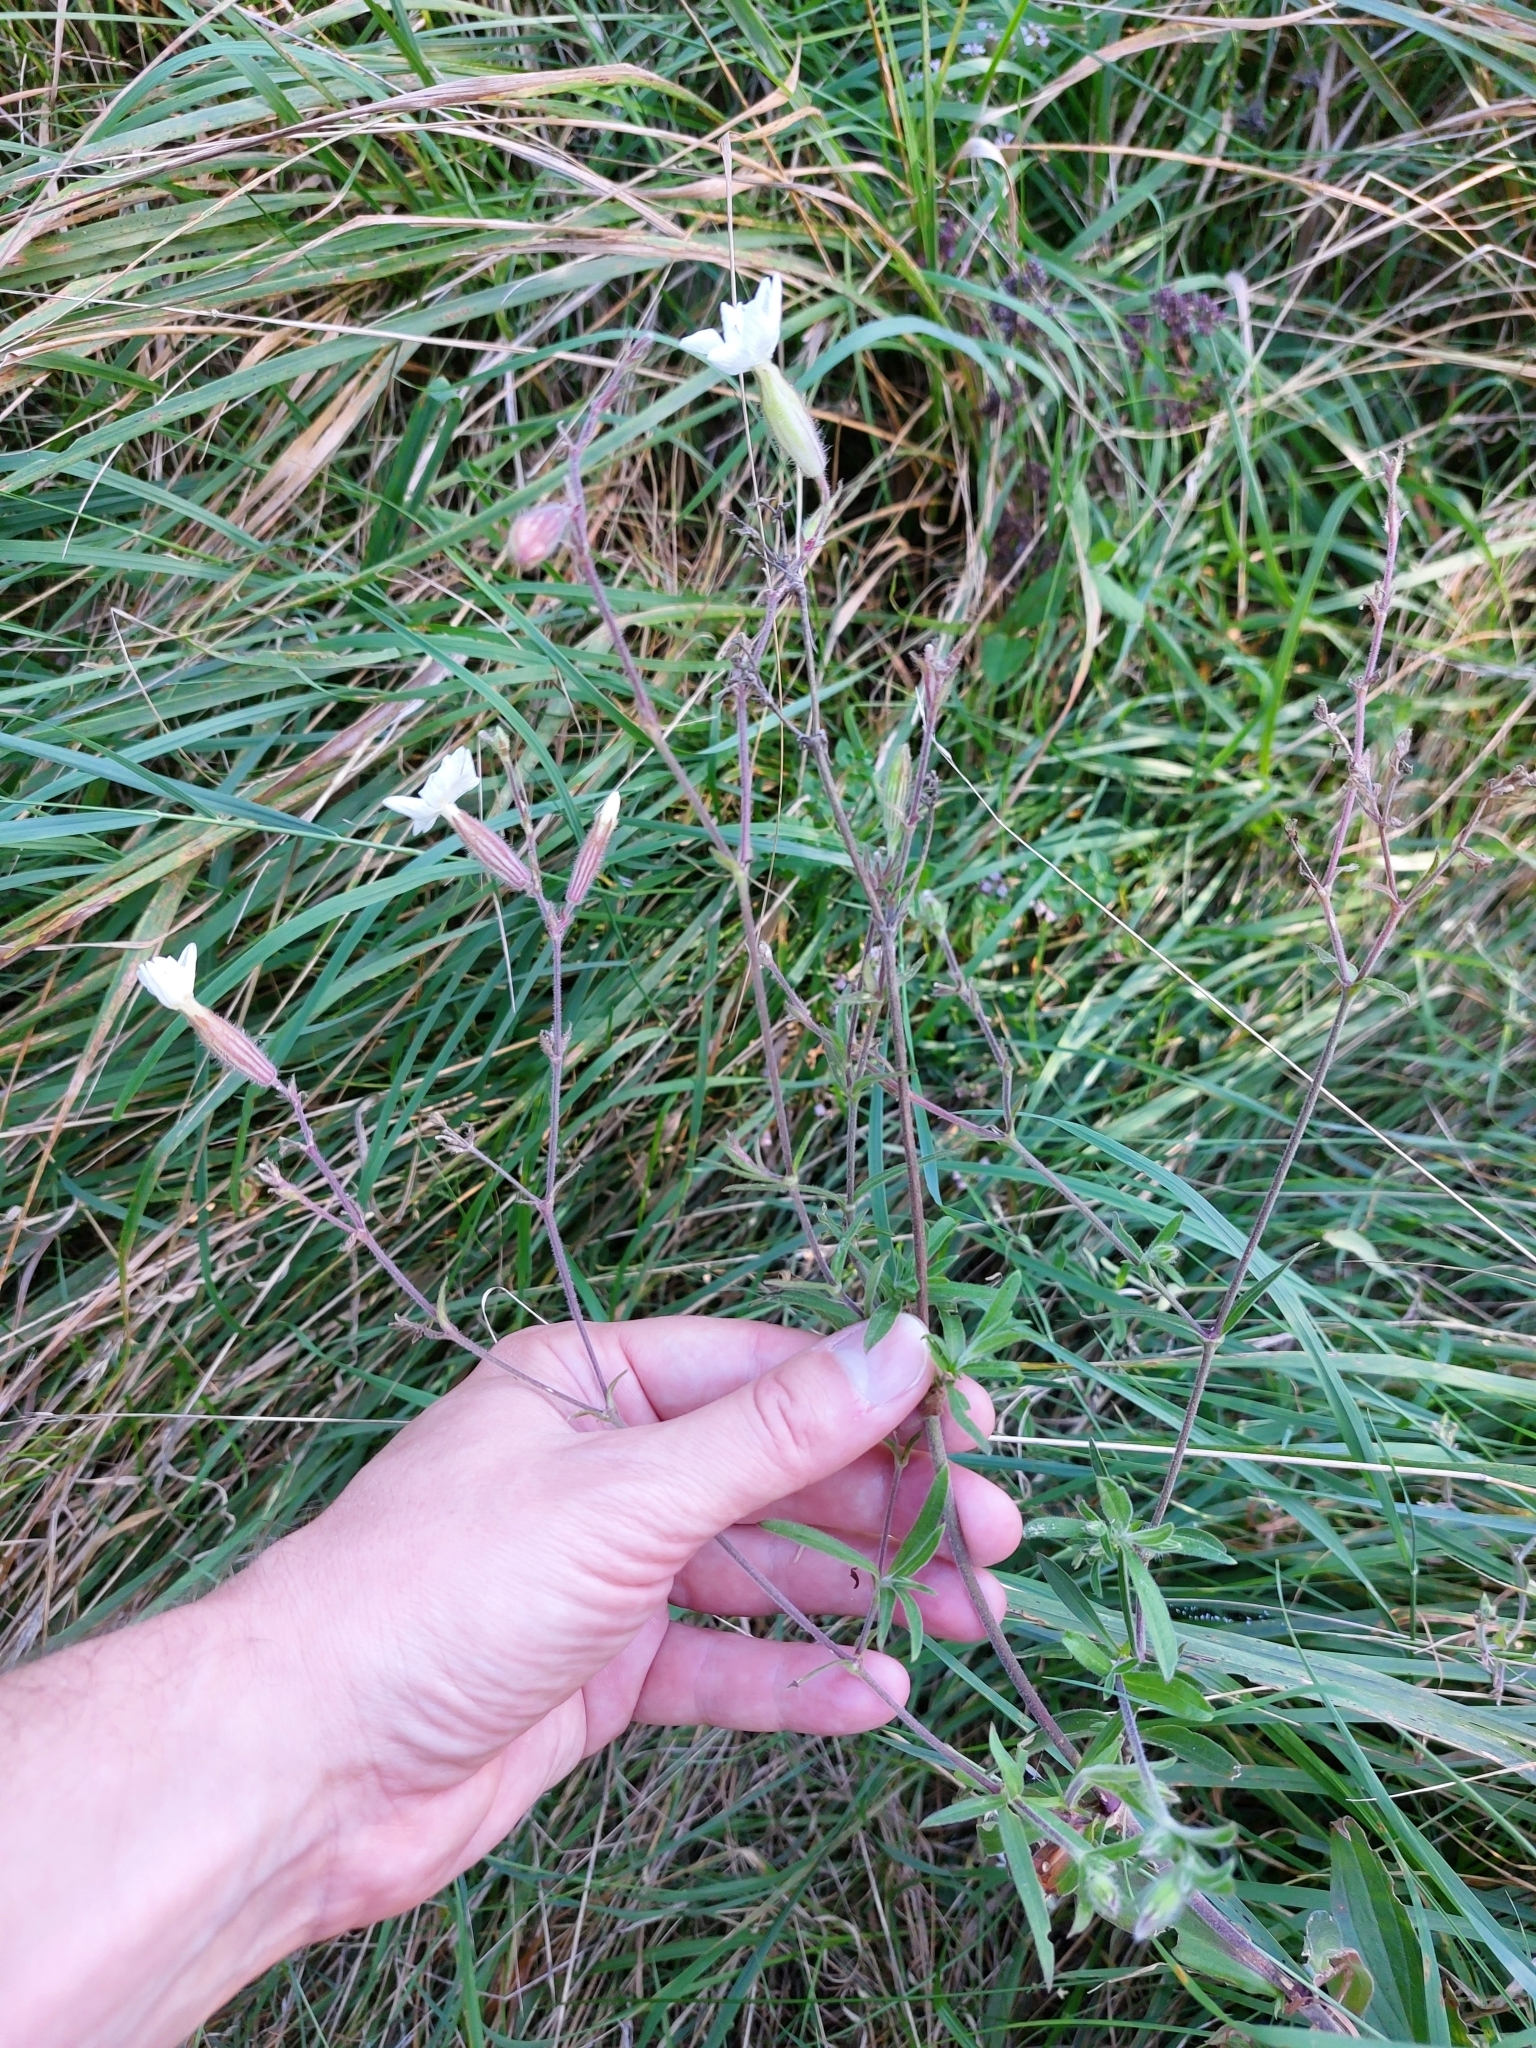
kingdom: Plantae
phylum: Tracheophyta
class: Magnoliopsida
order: Caryophyllales
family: Caryophyllaceae
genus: Silene
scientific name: Silene latifolia
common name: White campion
